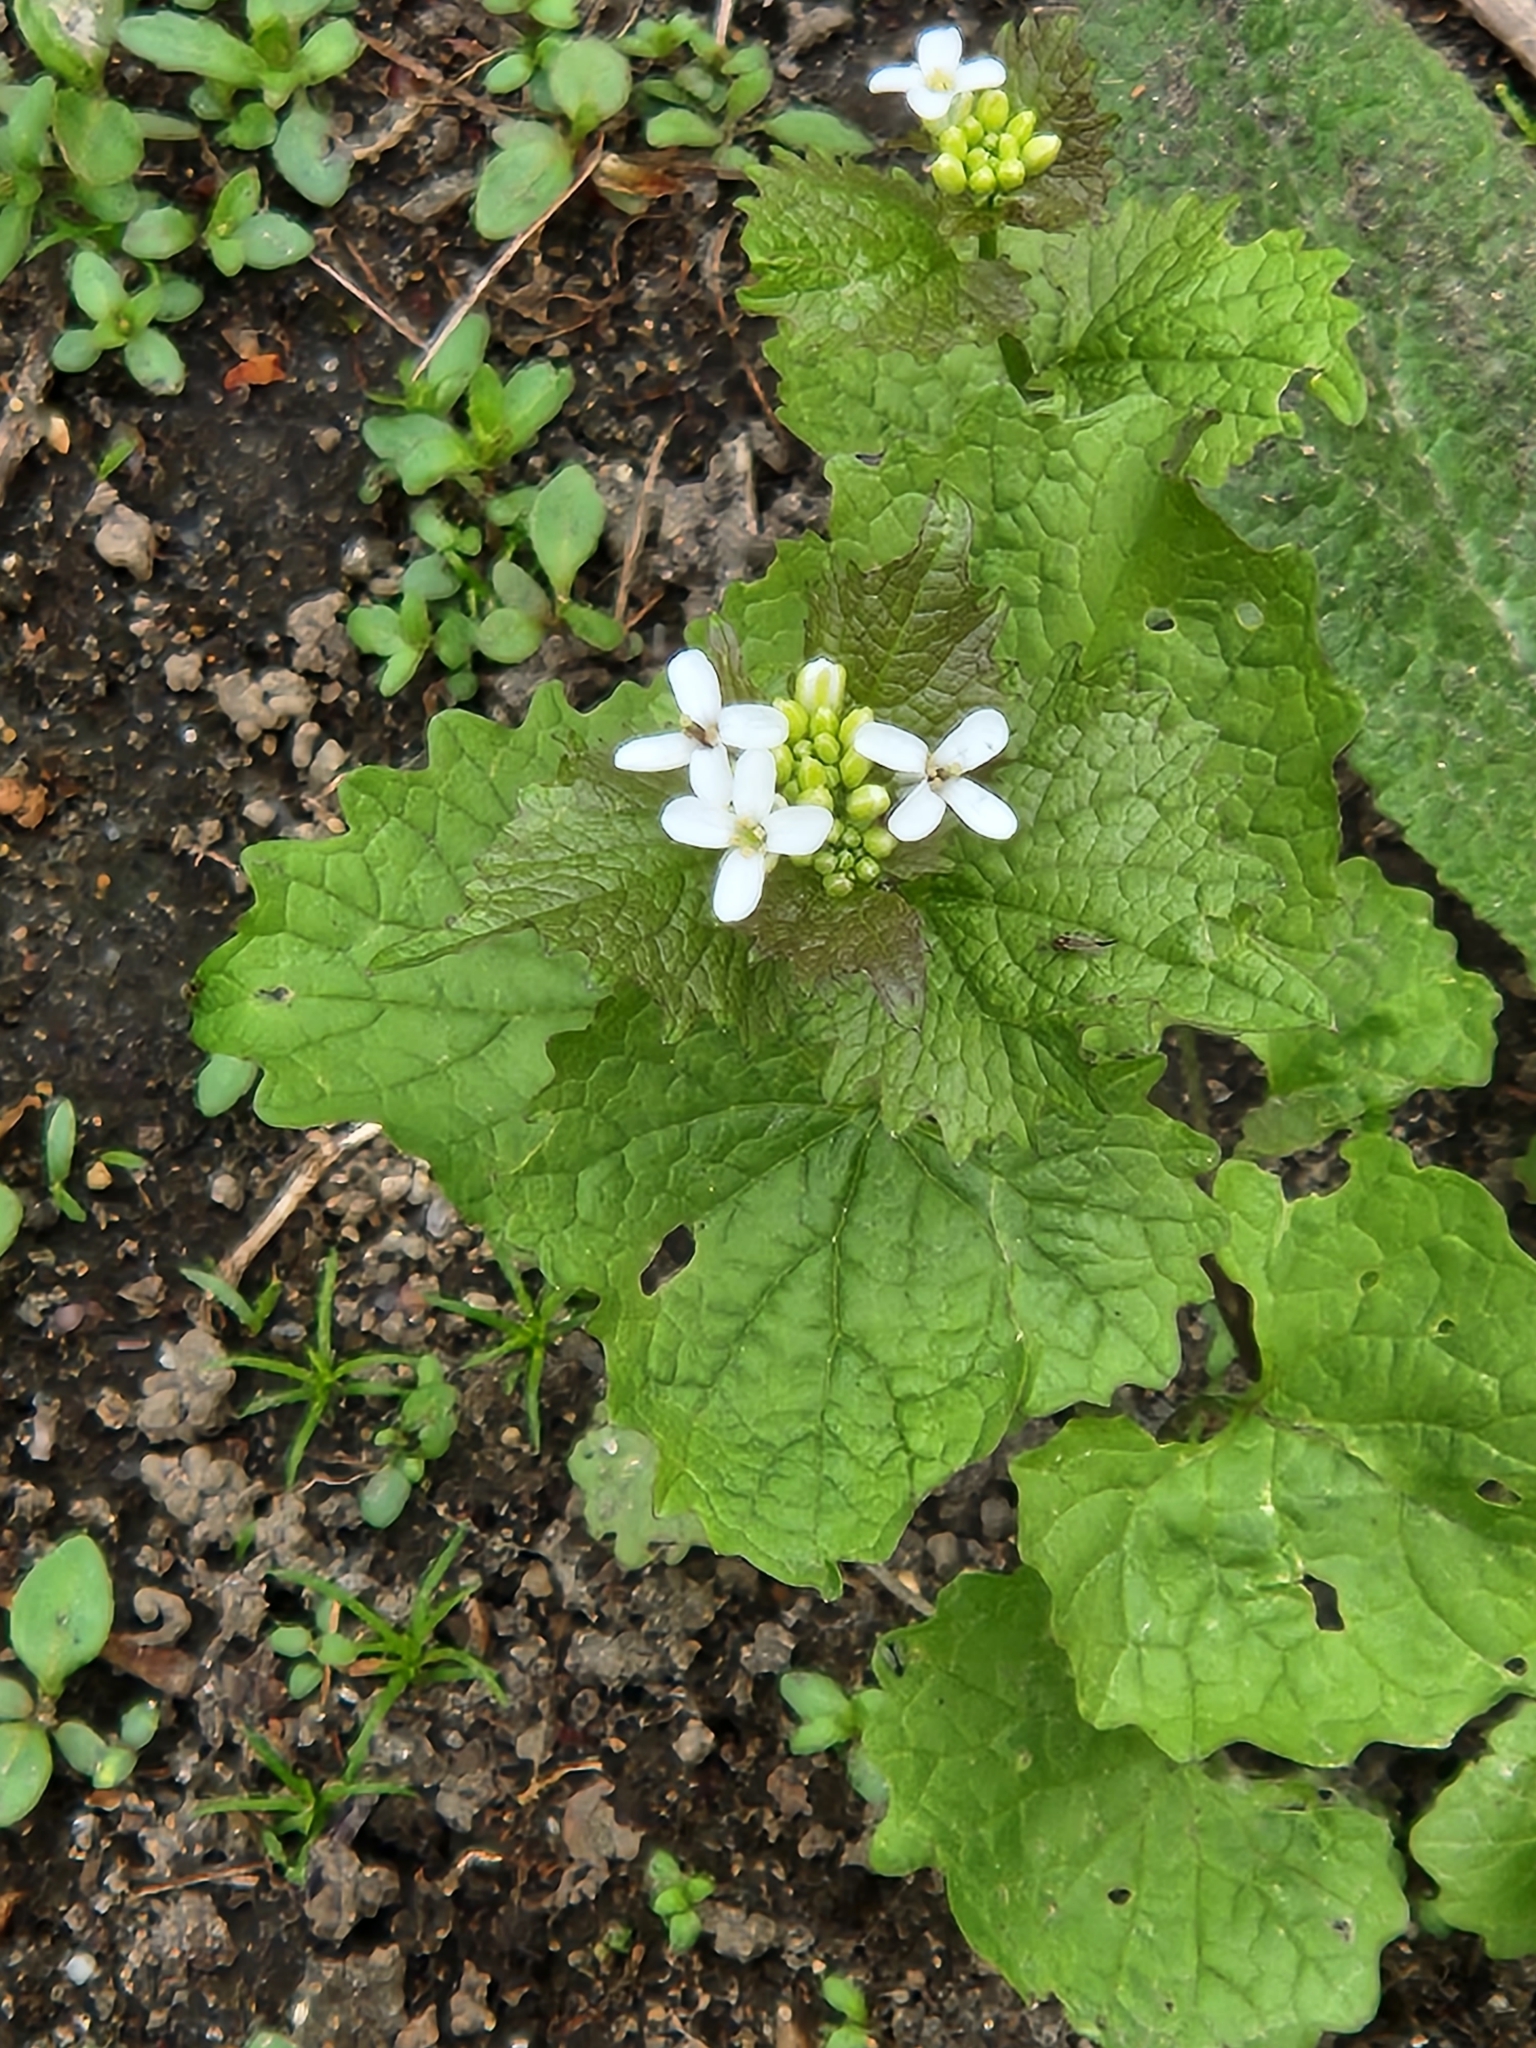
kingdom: Plantae
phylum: Tracheophyta
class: Magnoliopsida
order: Brassicales
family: Brassicaceae
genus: Alliaria
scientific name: Alliaria petiolata
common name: Garlic mustard
